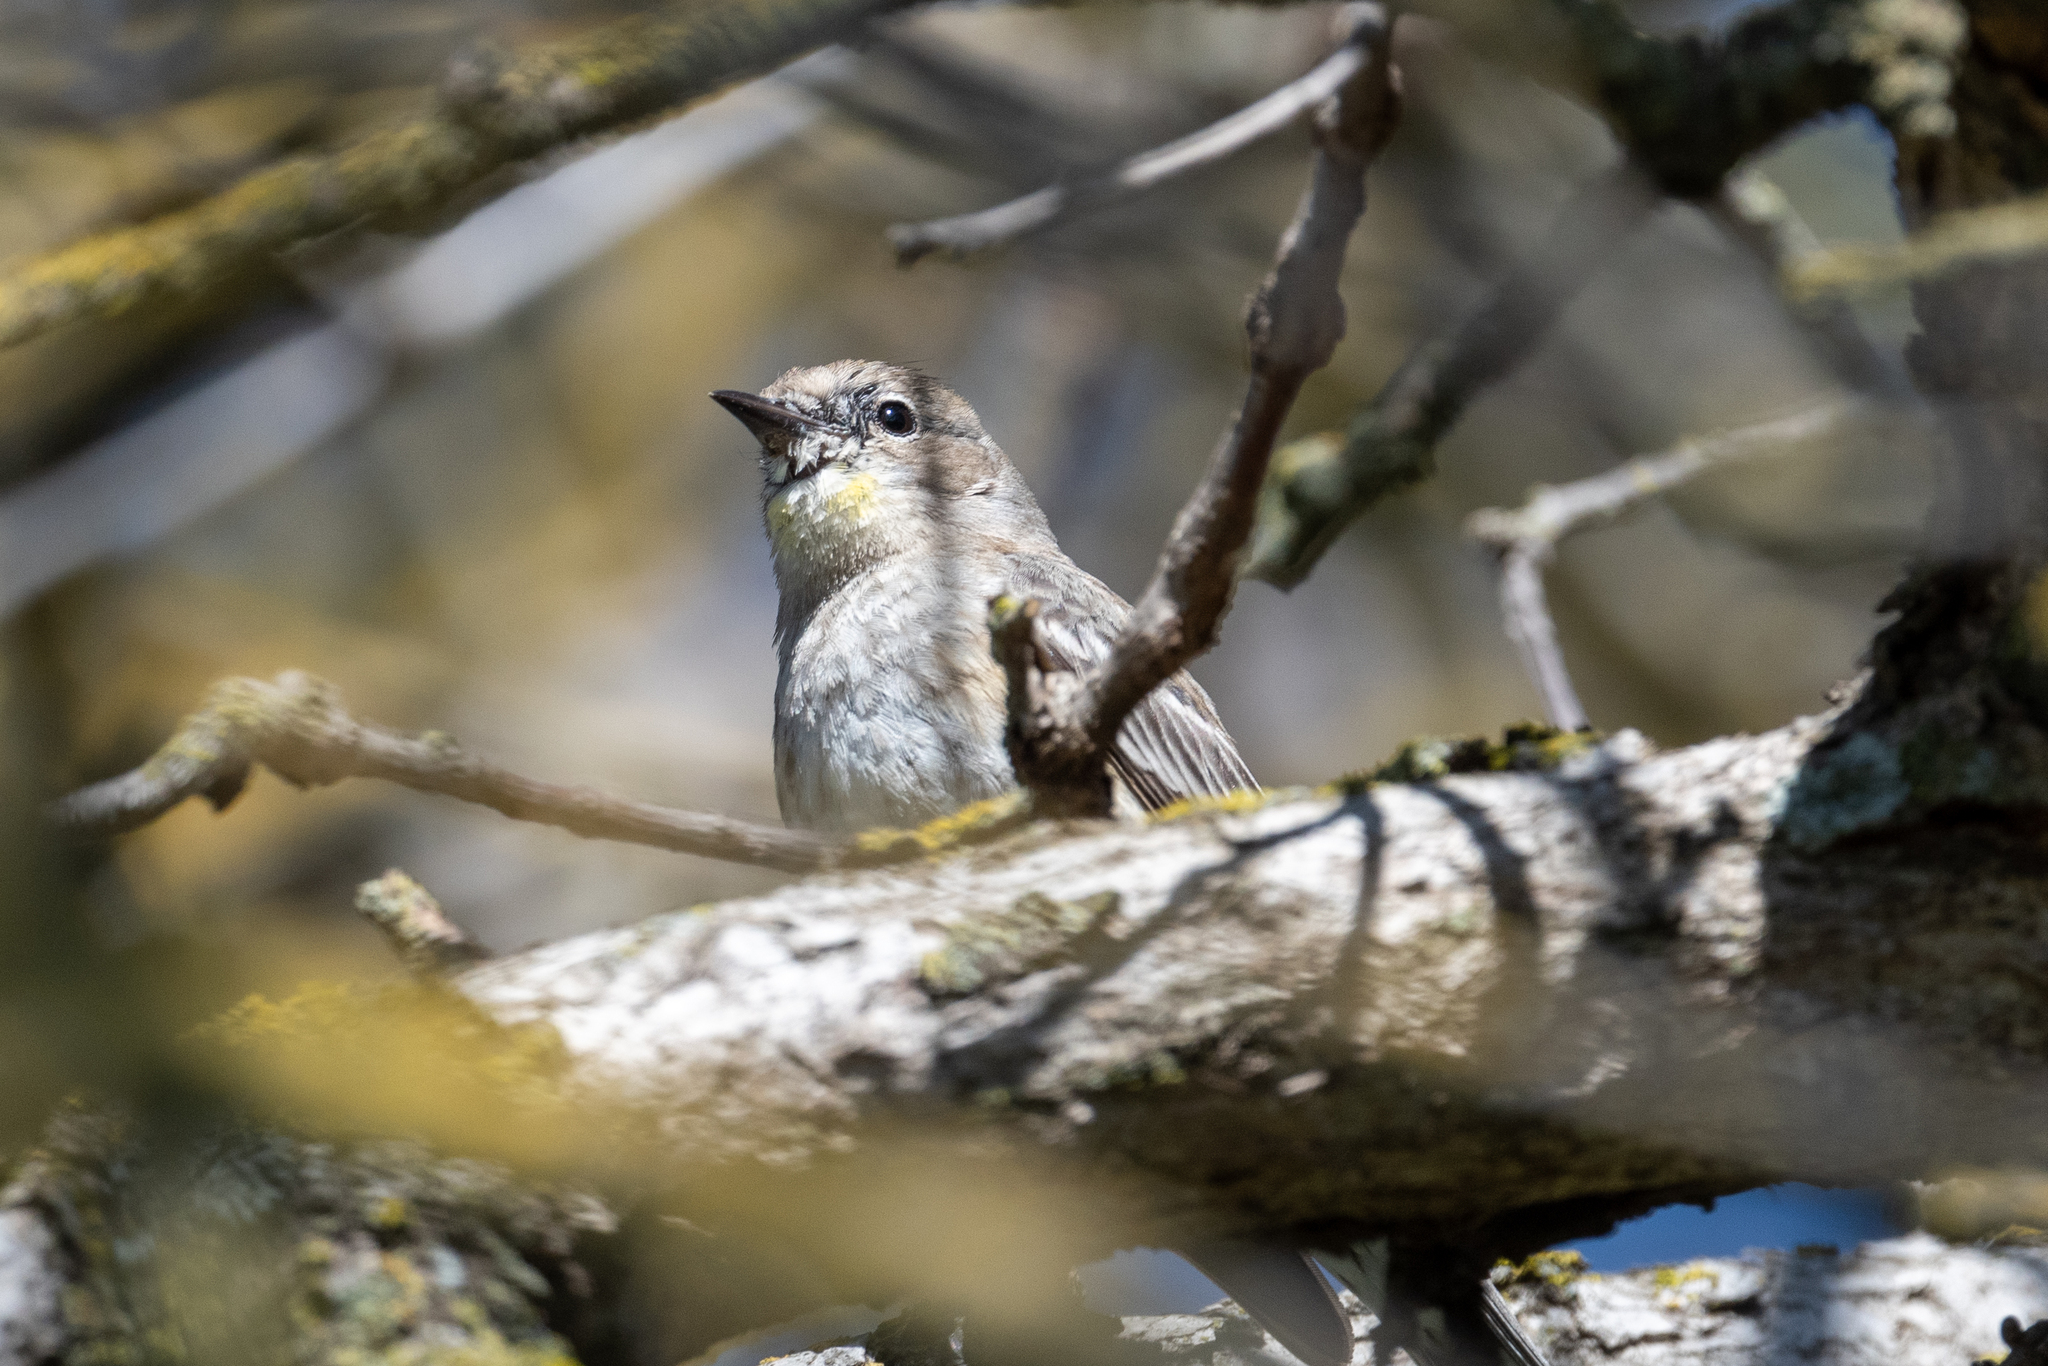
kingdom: Animalia
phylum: Chordata
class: Aves
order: Passeriformes
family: Parulidae
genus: Setophaga
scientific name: Setophaga coronata
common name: Myrtle warbler
